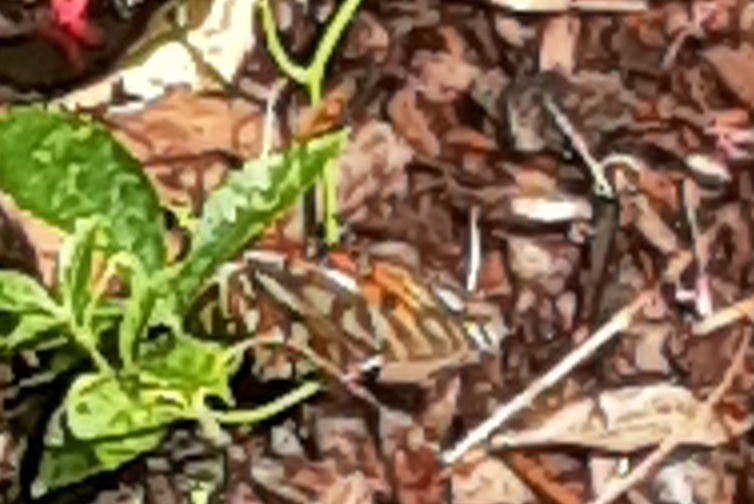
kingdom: Animalia
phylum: Arthropoda
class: Insecta
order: Lepidoptera
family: Nymphalidae
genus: Dione
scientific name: Dione vanillae
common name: Gulf fritillary
